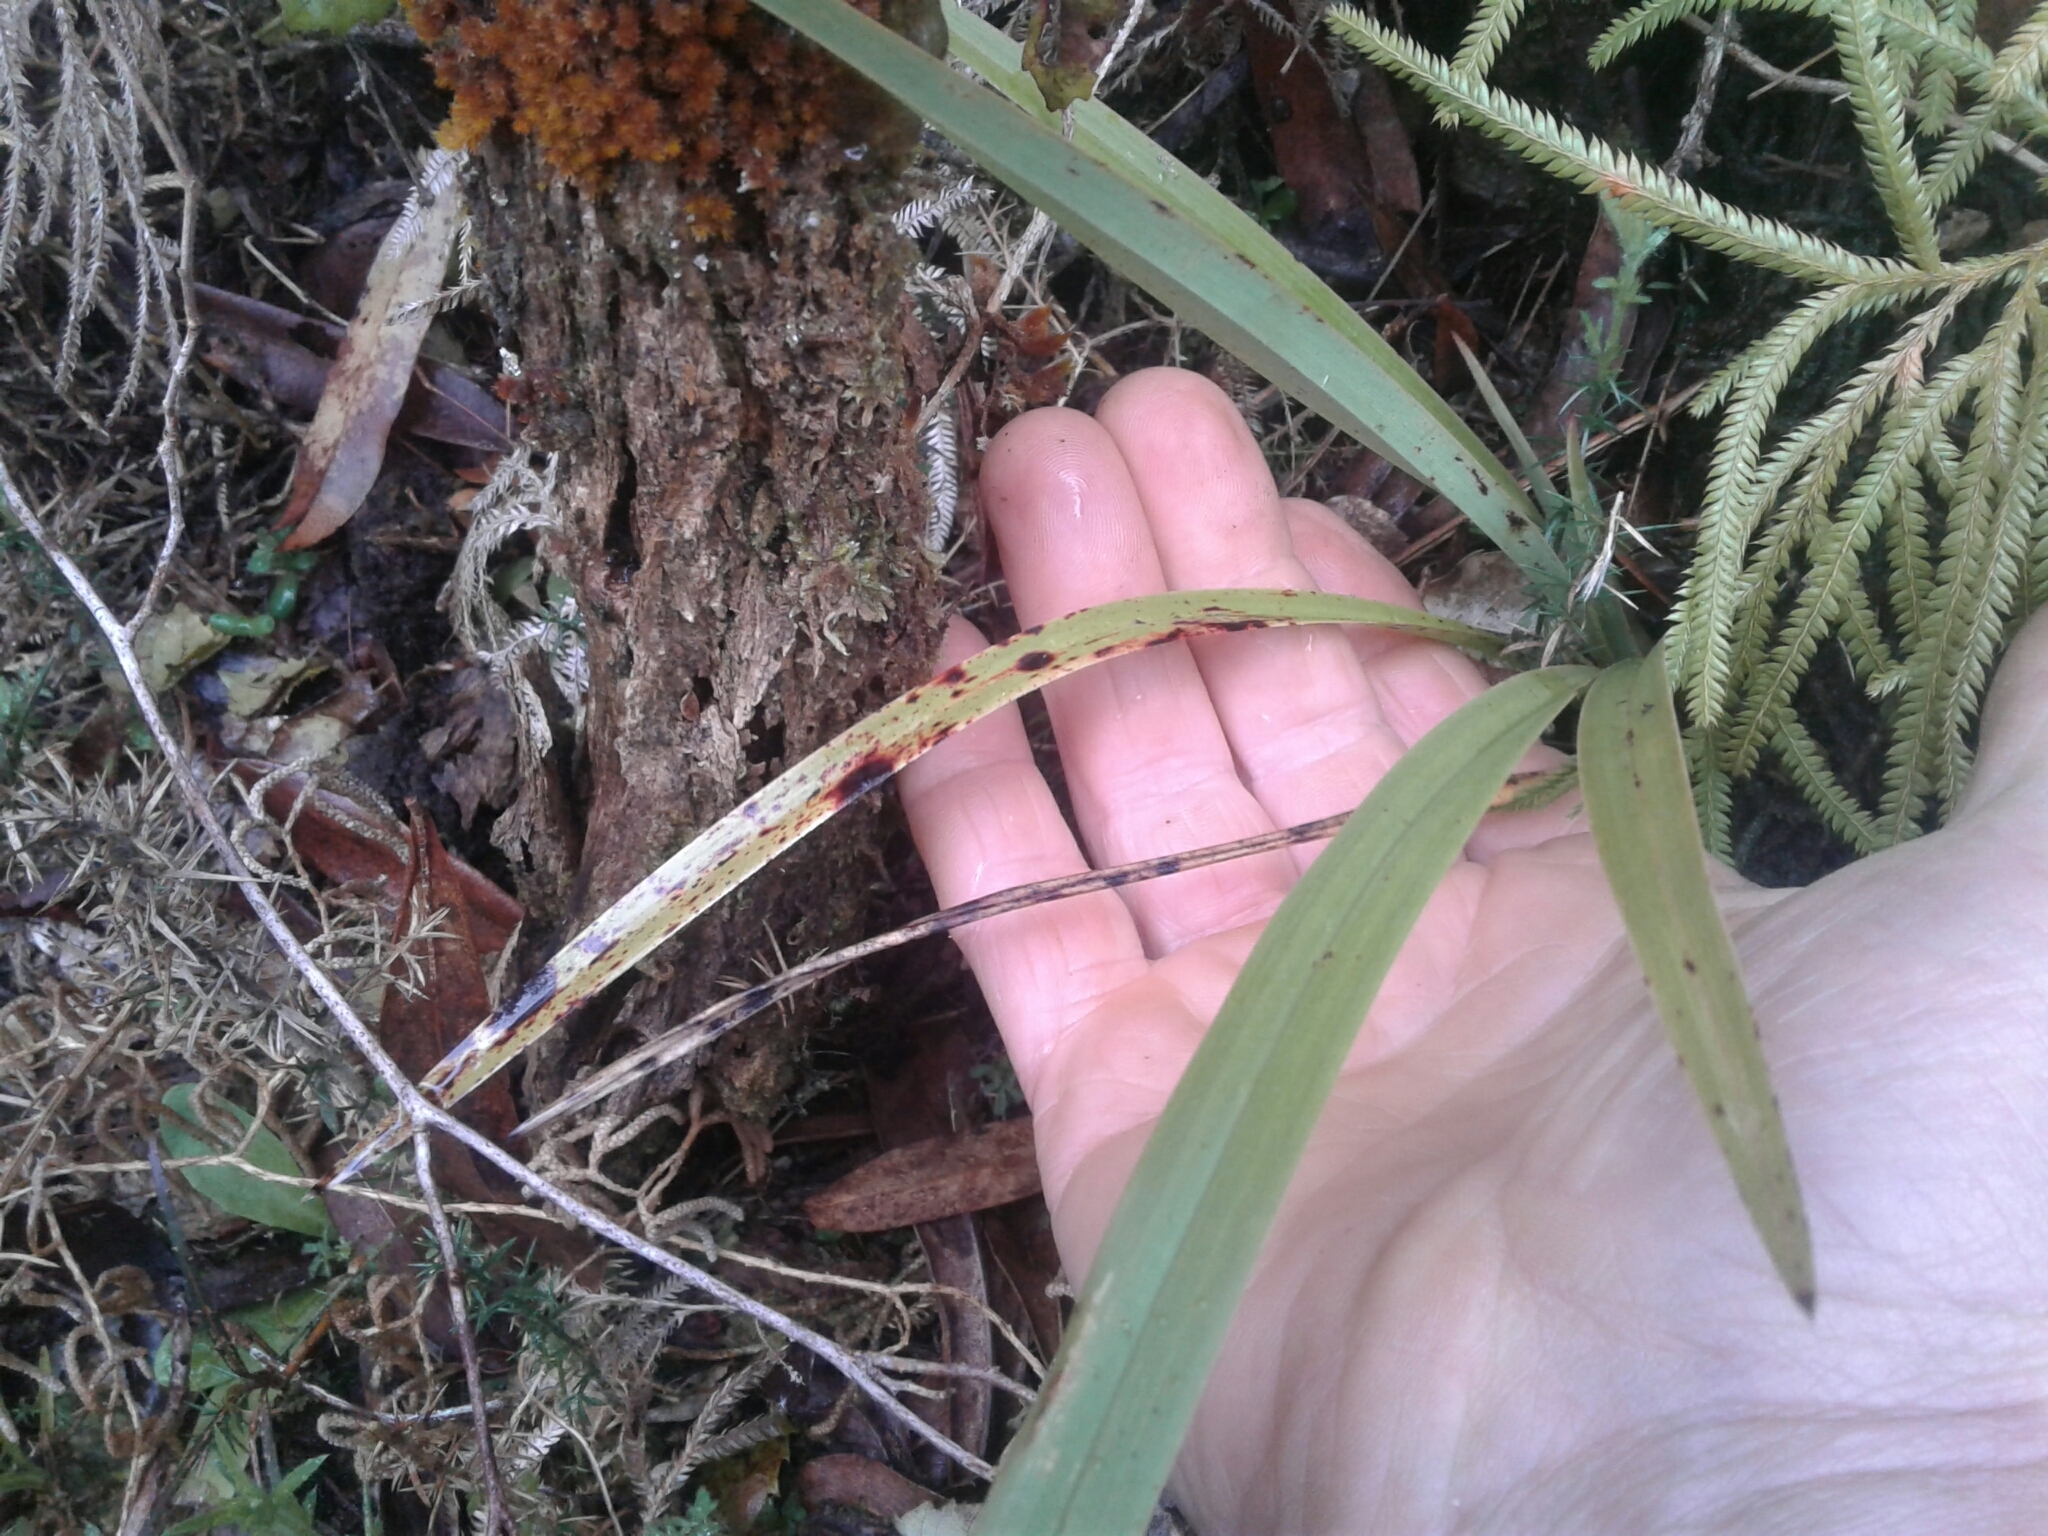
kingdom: Plantae
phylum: Tracheophyta
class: Liliopsida
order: Asparagales
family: Asphodelaceae
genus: Dianella
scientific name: Dianella nigra
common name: New zealand-blueberry
